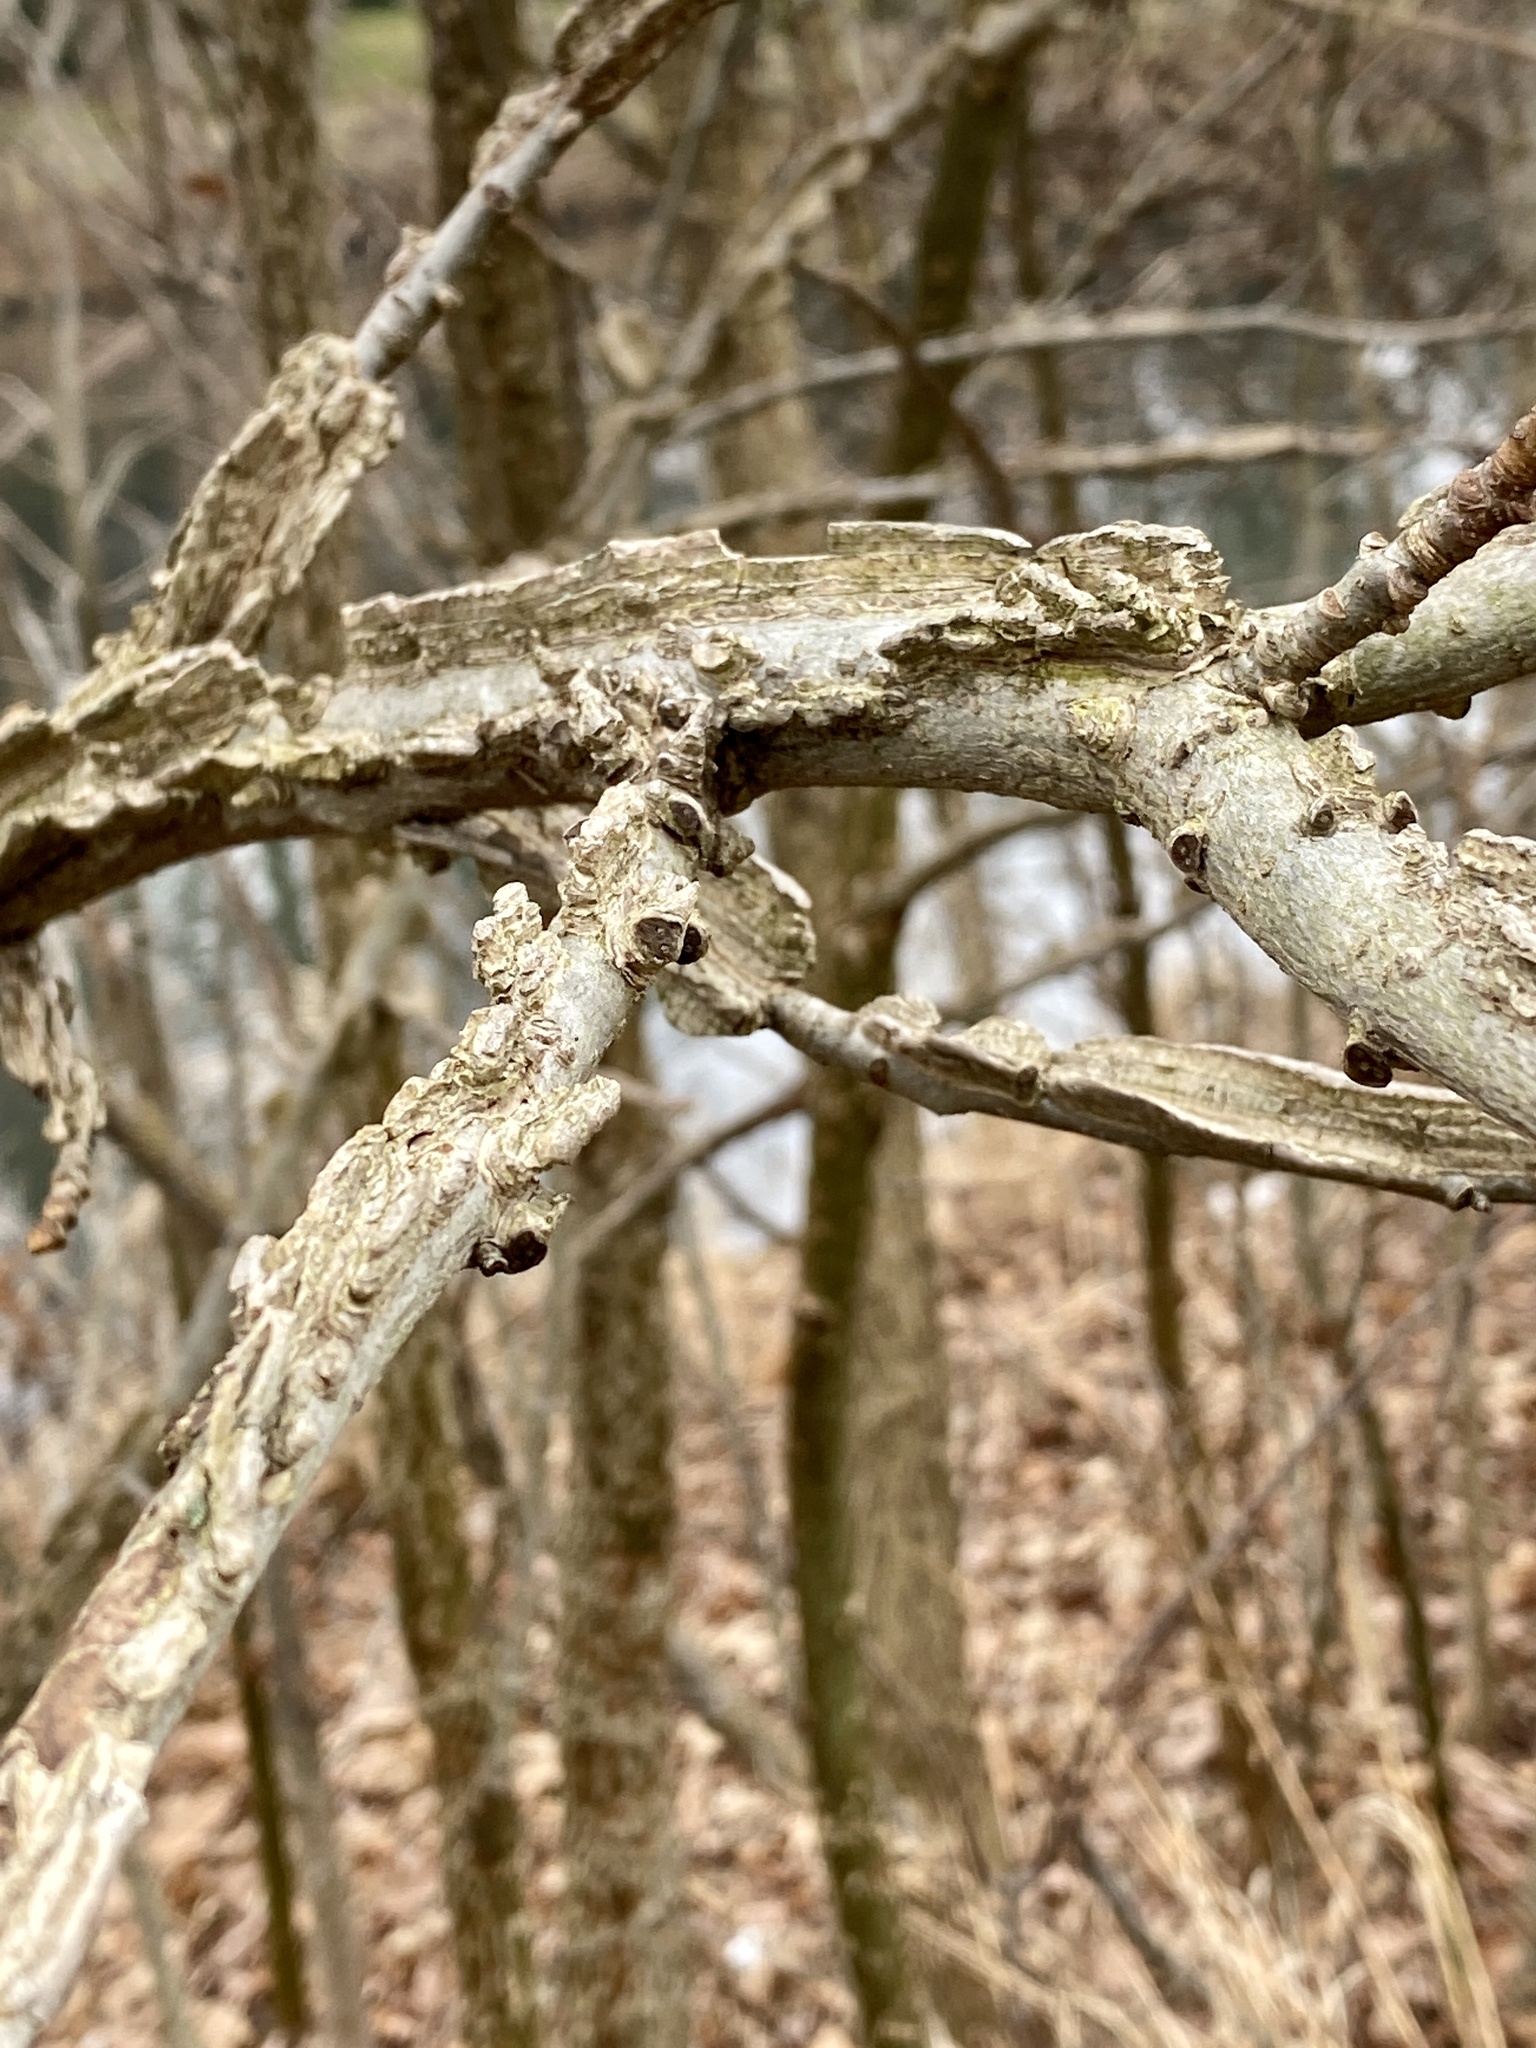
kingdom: Plantae
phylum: Tracheophyta
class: Magnoliopsida
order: Saxifragales
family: Altingiaceae
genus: Liquidambar
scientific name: Liquidambar styraciflua
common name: Sweet gum
